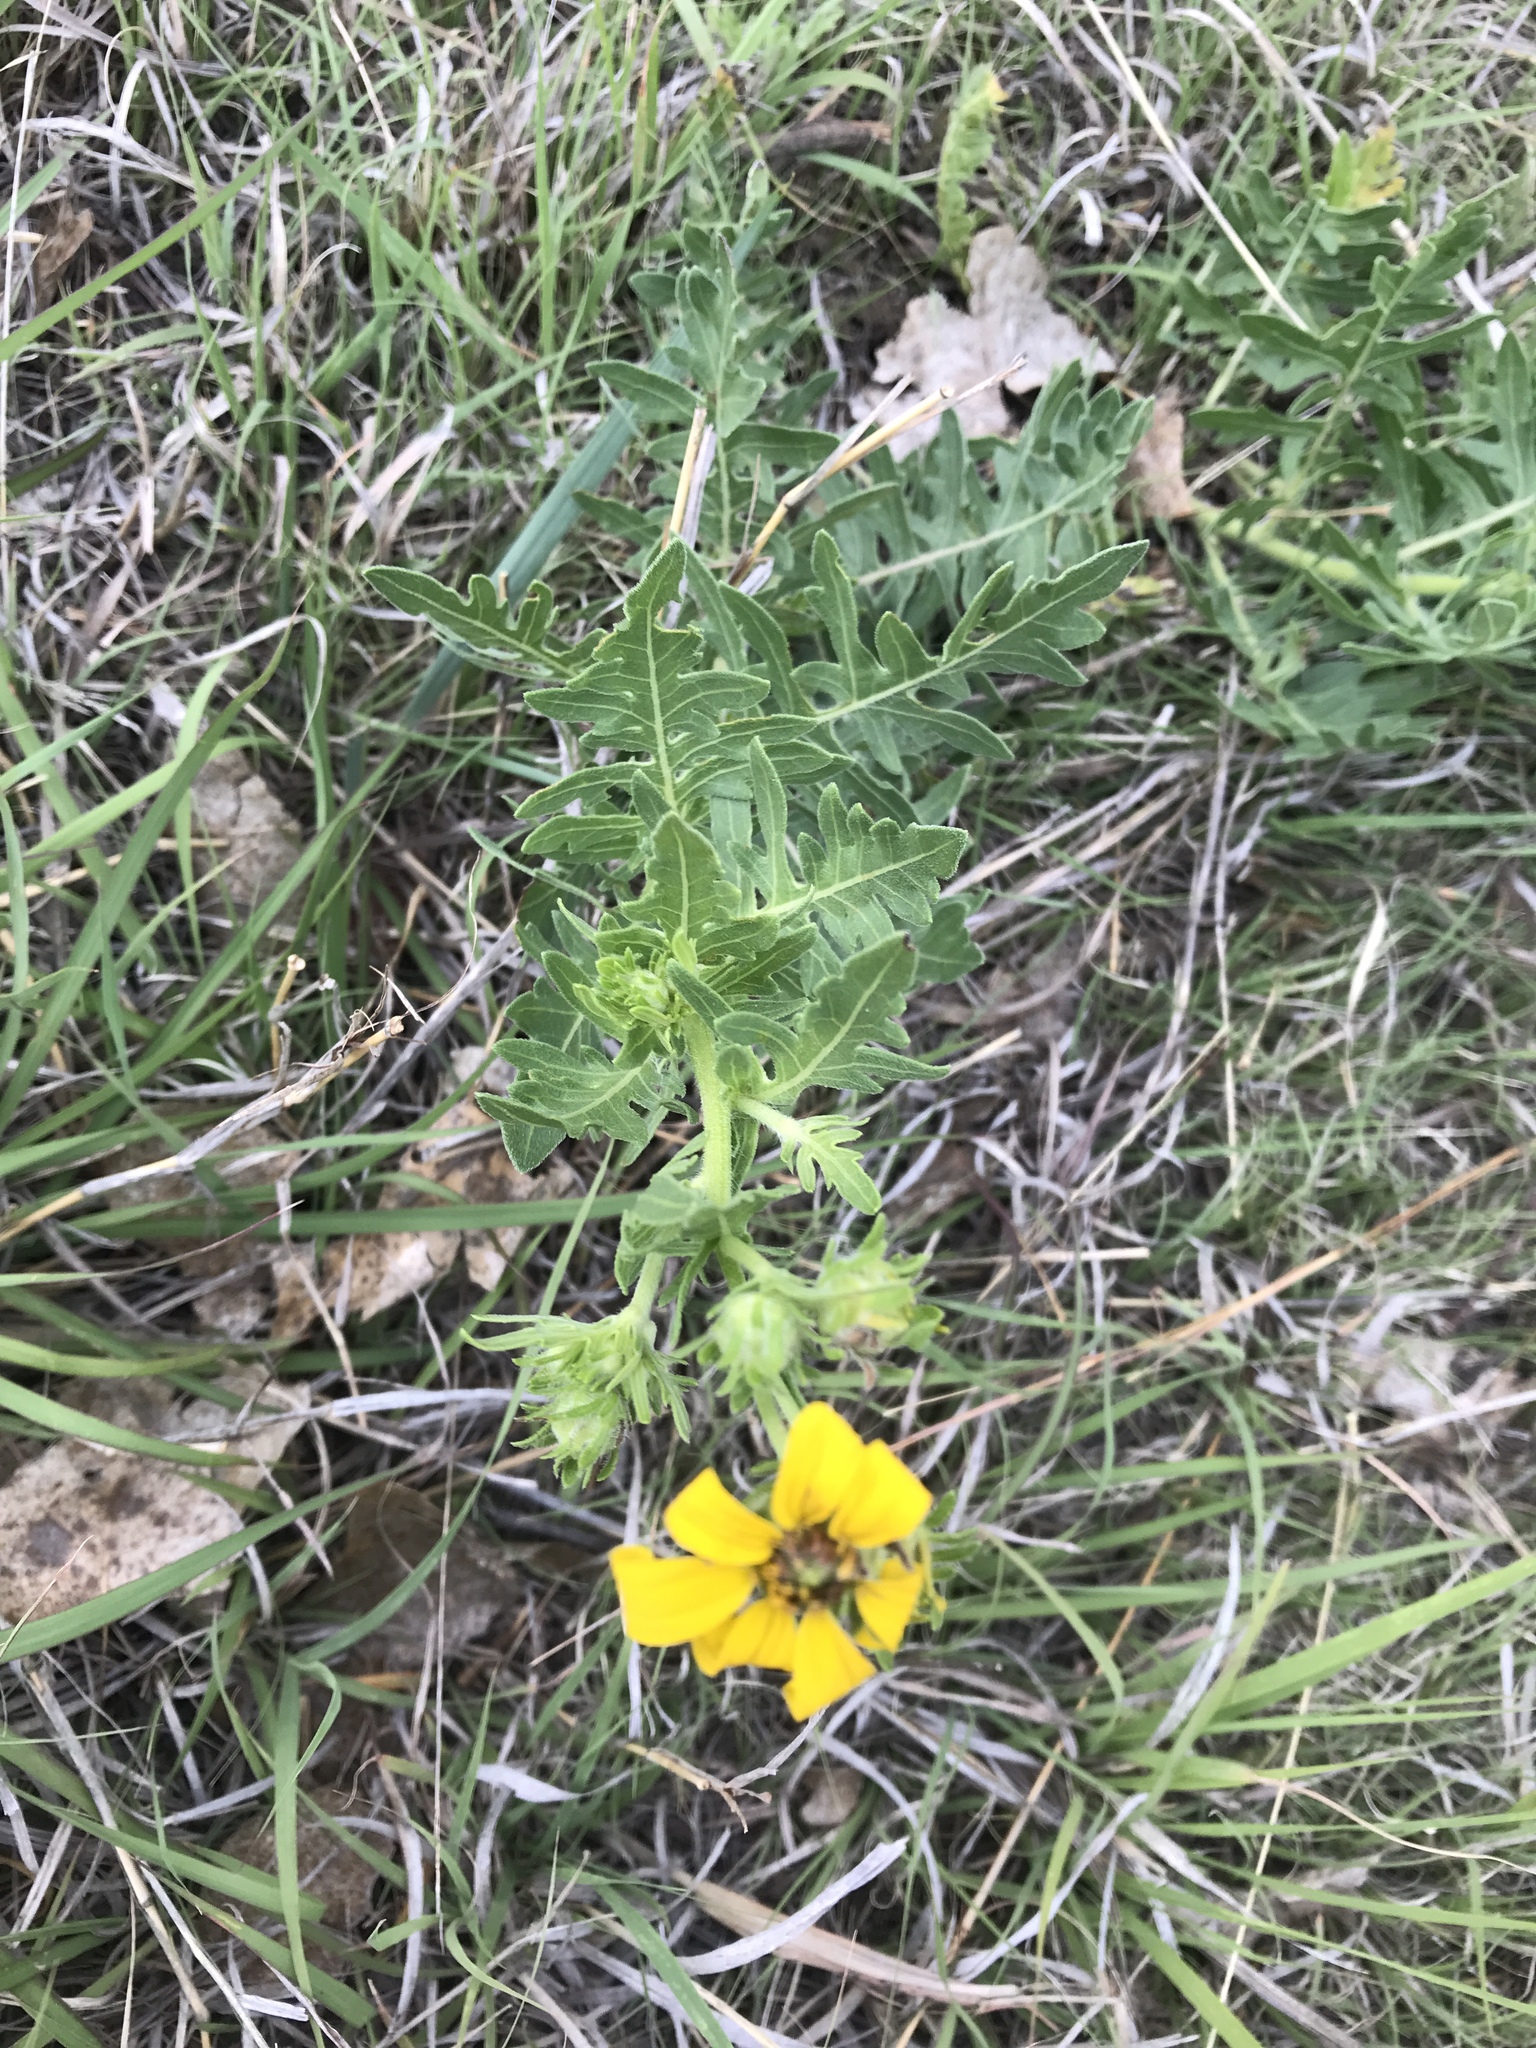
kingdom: Plantae
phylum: Tracheophyta
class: Magnoliopsida
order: Asterales
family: Asteraceae
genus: Engelmannia
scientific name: Engelmannia peristenia
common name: Engelmann's daisy
